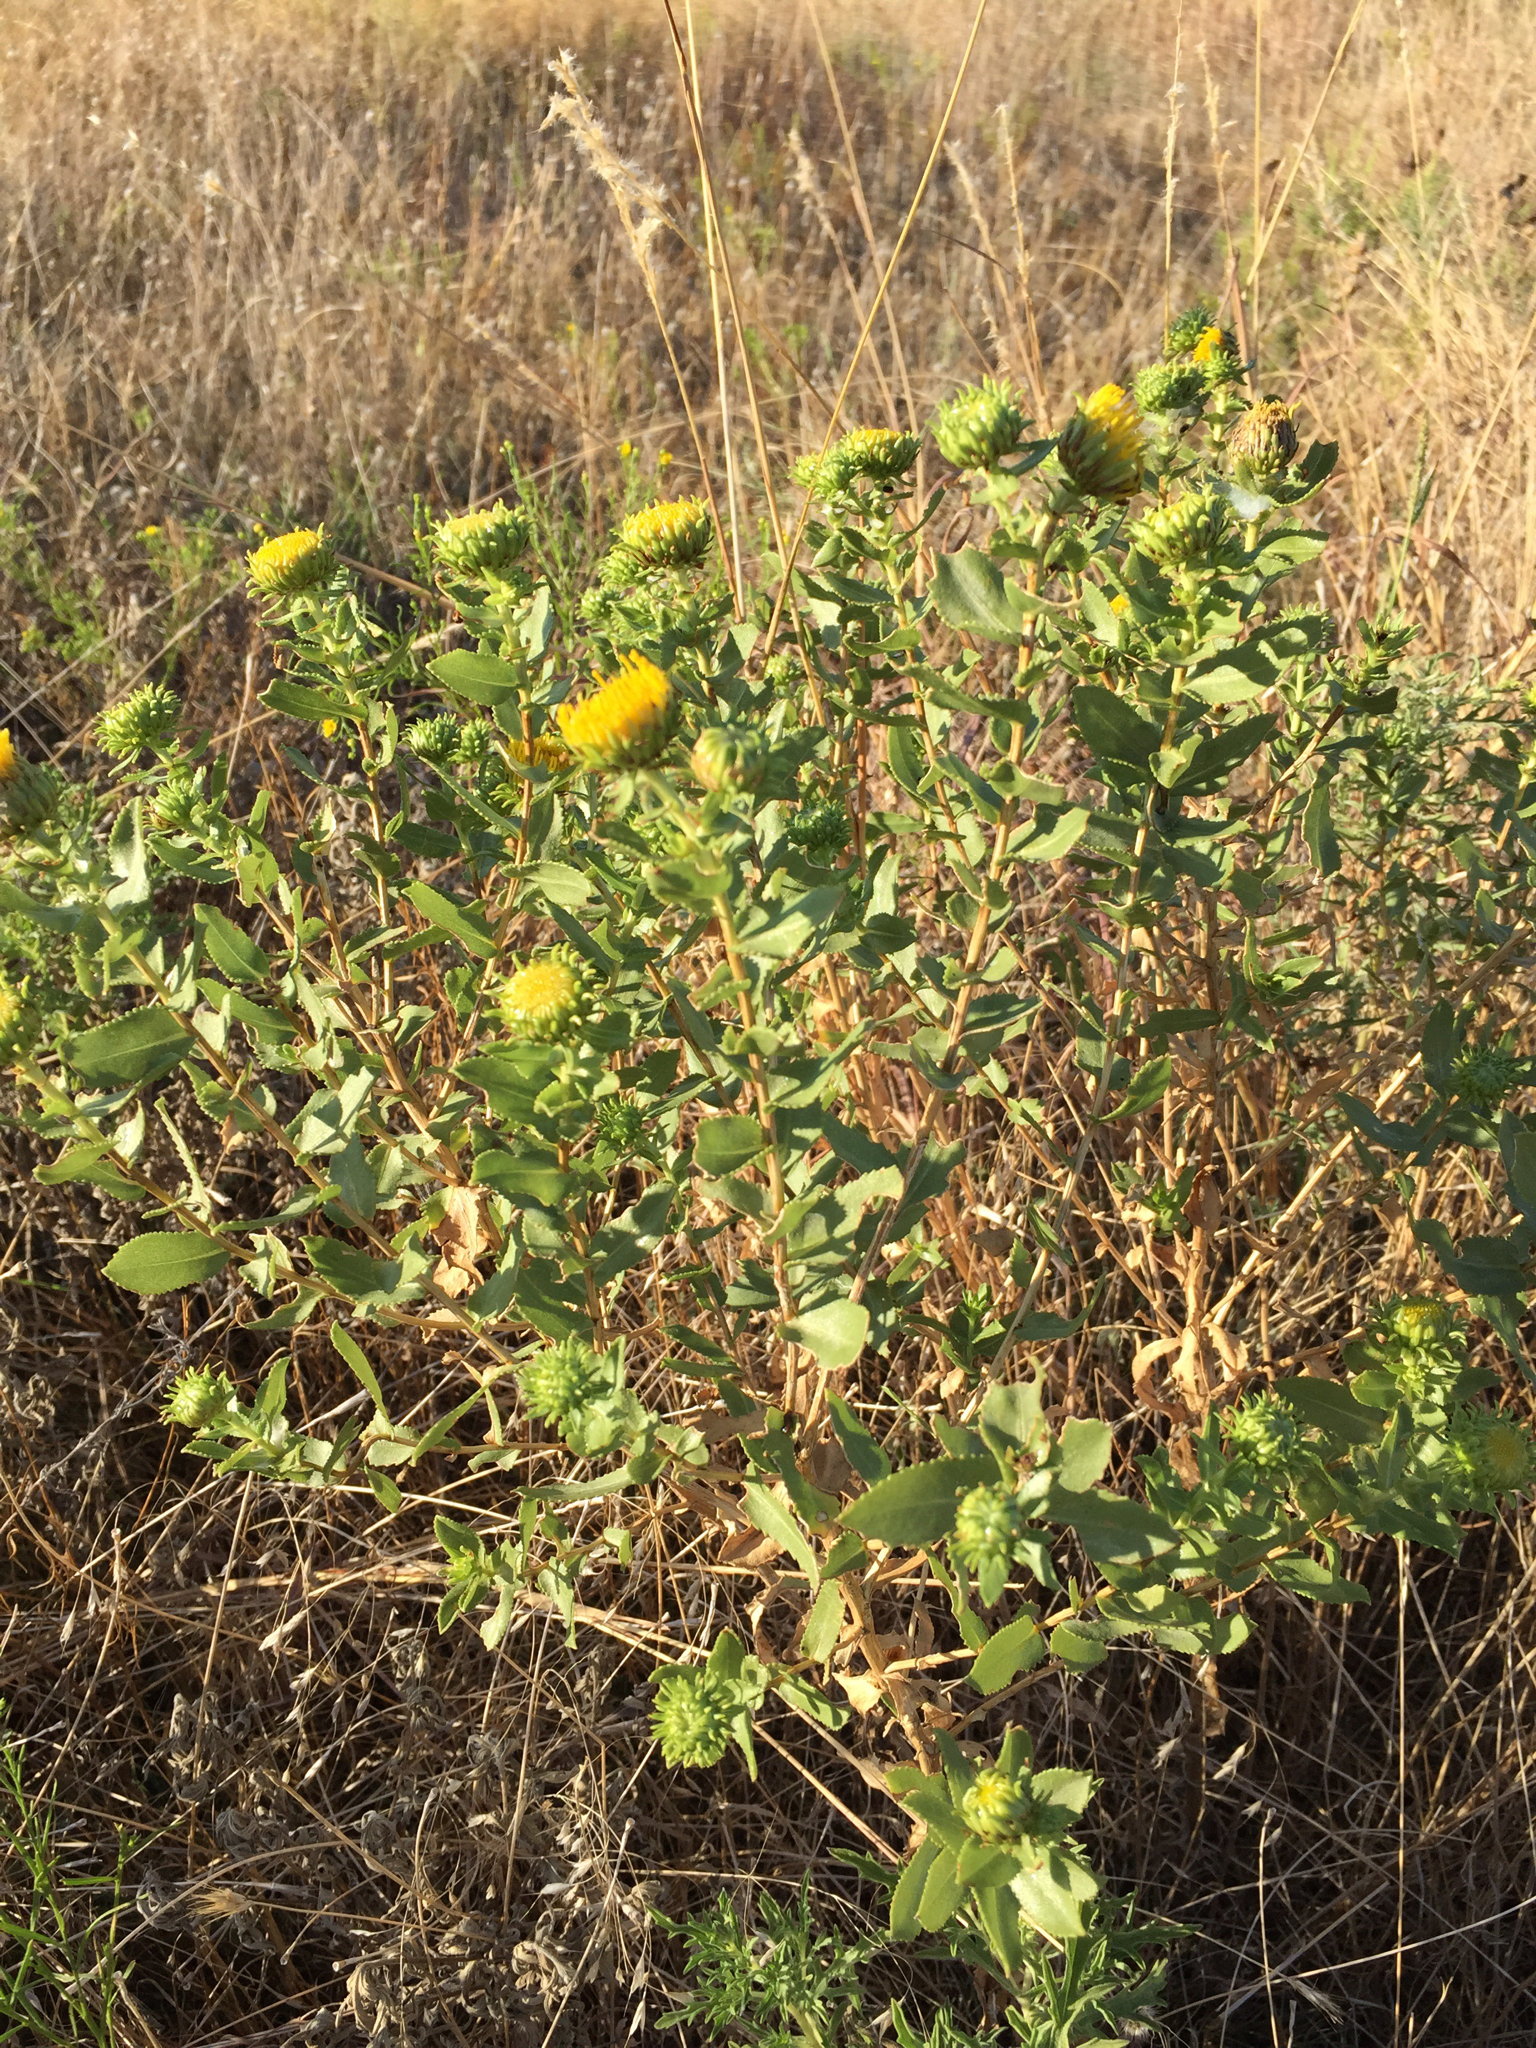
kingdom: Plantae
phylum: Tracheophyta
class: Magnoliopsida
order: Asterales
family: Asteraceae
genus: Grindelia
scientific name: Grindelia nuda
